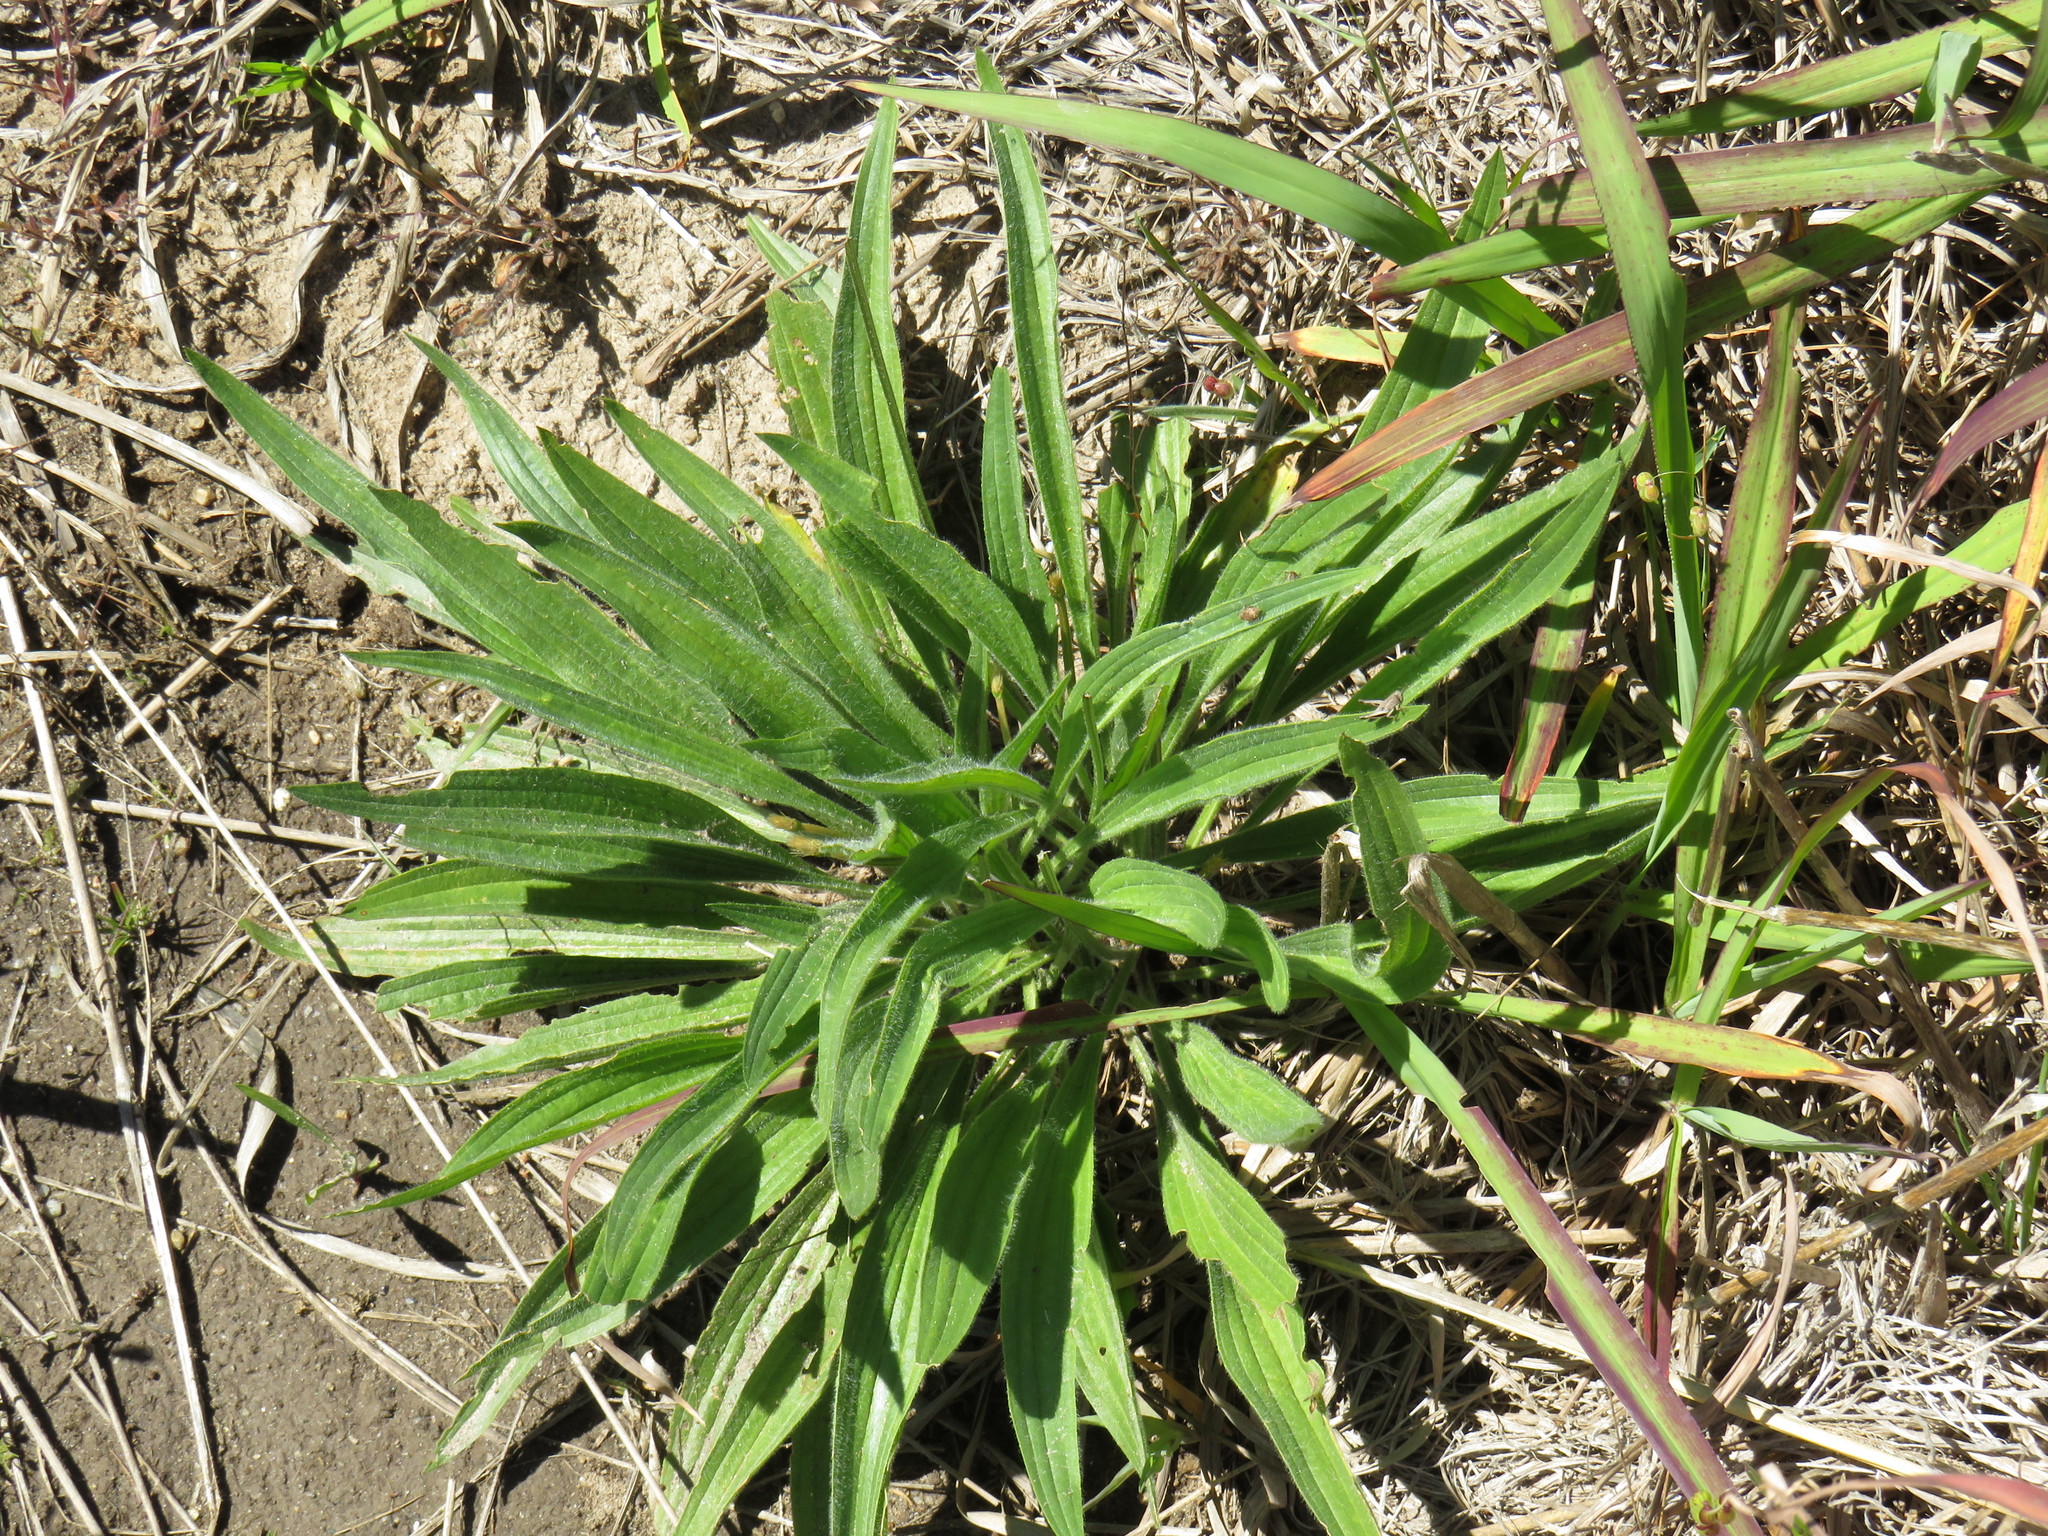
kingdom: Plantae
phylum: Tracheophyta
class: Magnoliopsida
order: Lamiales
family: Plantaginaceae
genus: Plantago
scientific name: Plantago lanceolata
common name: Ribwort plantain
